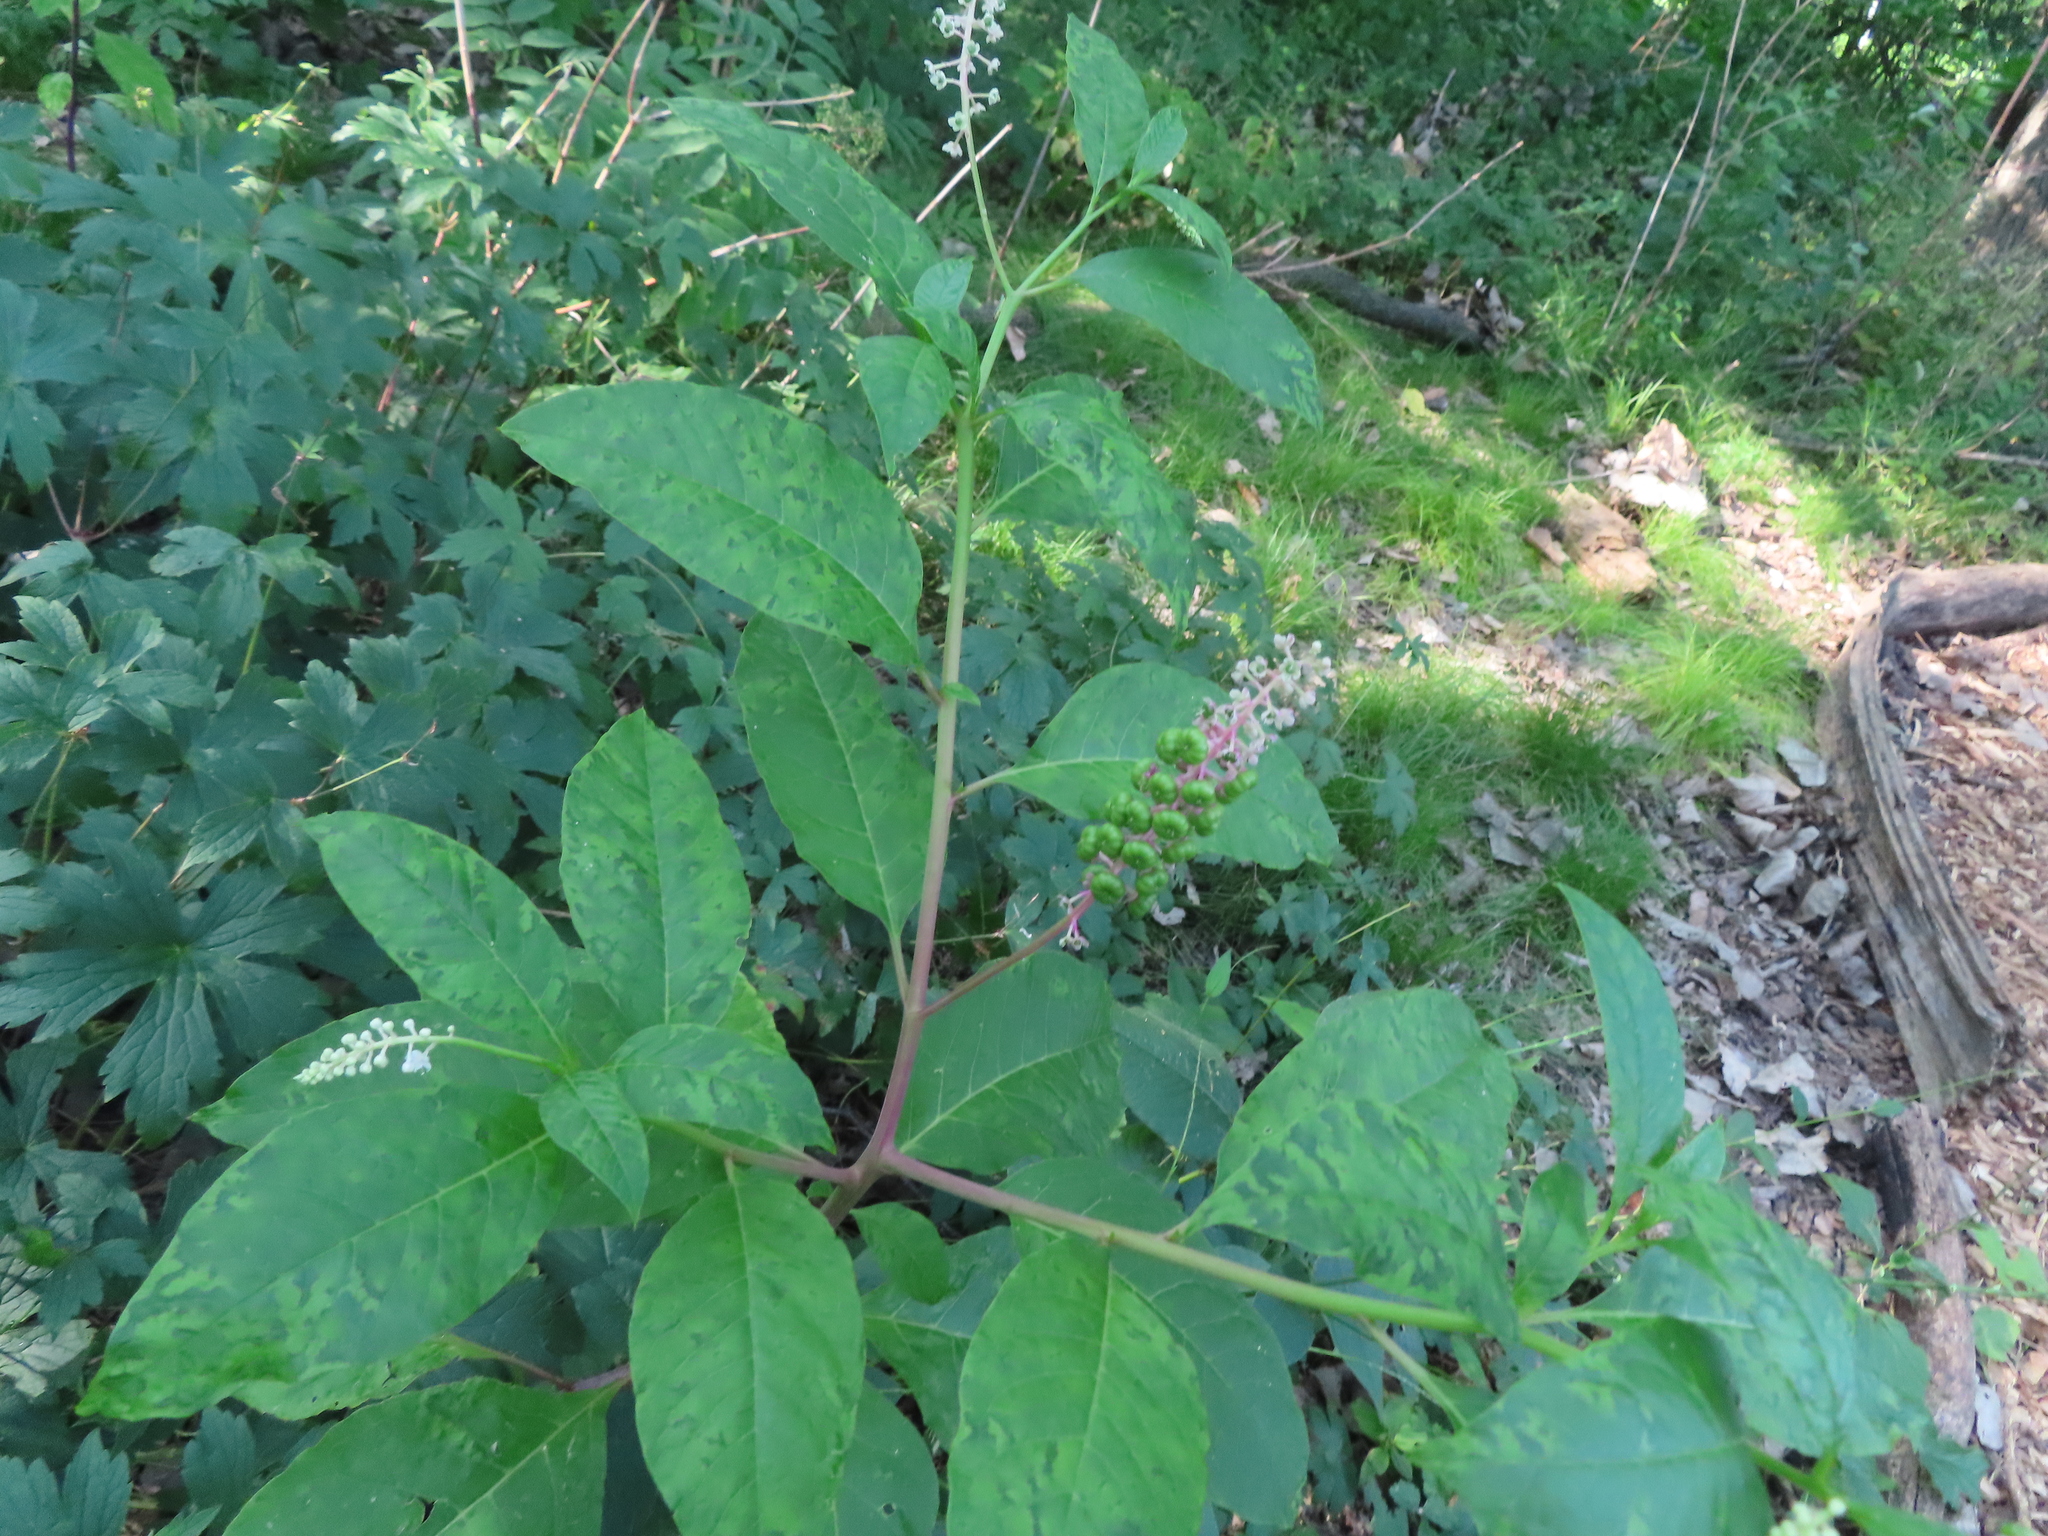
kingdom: Plantae
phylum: Tracheophyta
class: Magnoliopsida
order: Caryophyllales
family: Phytolaccaceae
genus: Phytolacca
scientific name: Phytolacca americana
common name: American pokeweed
